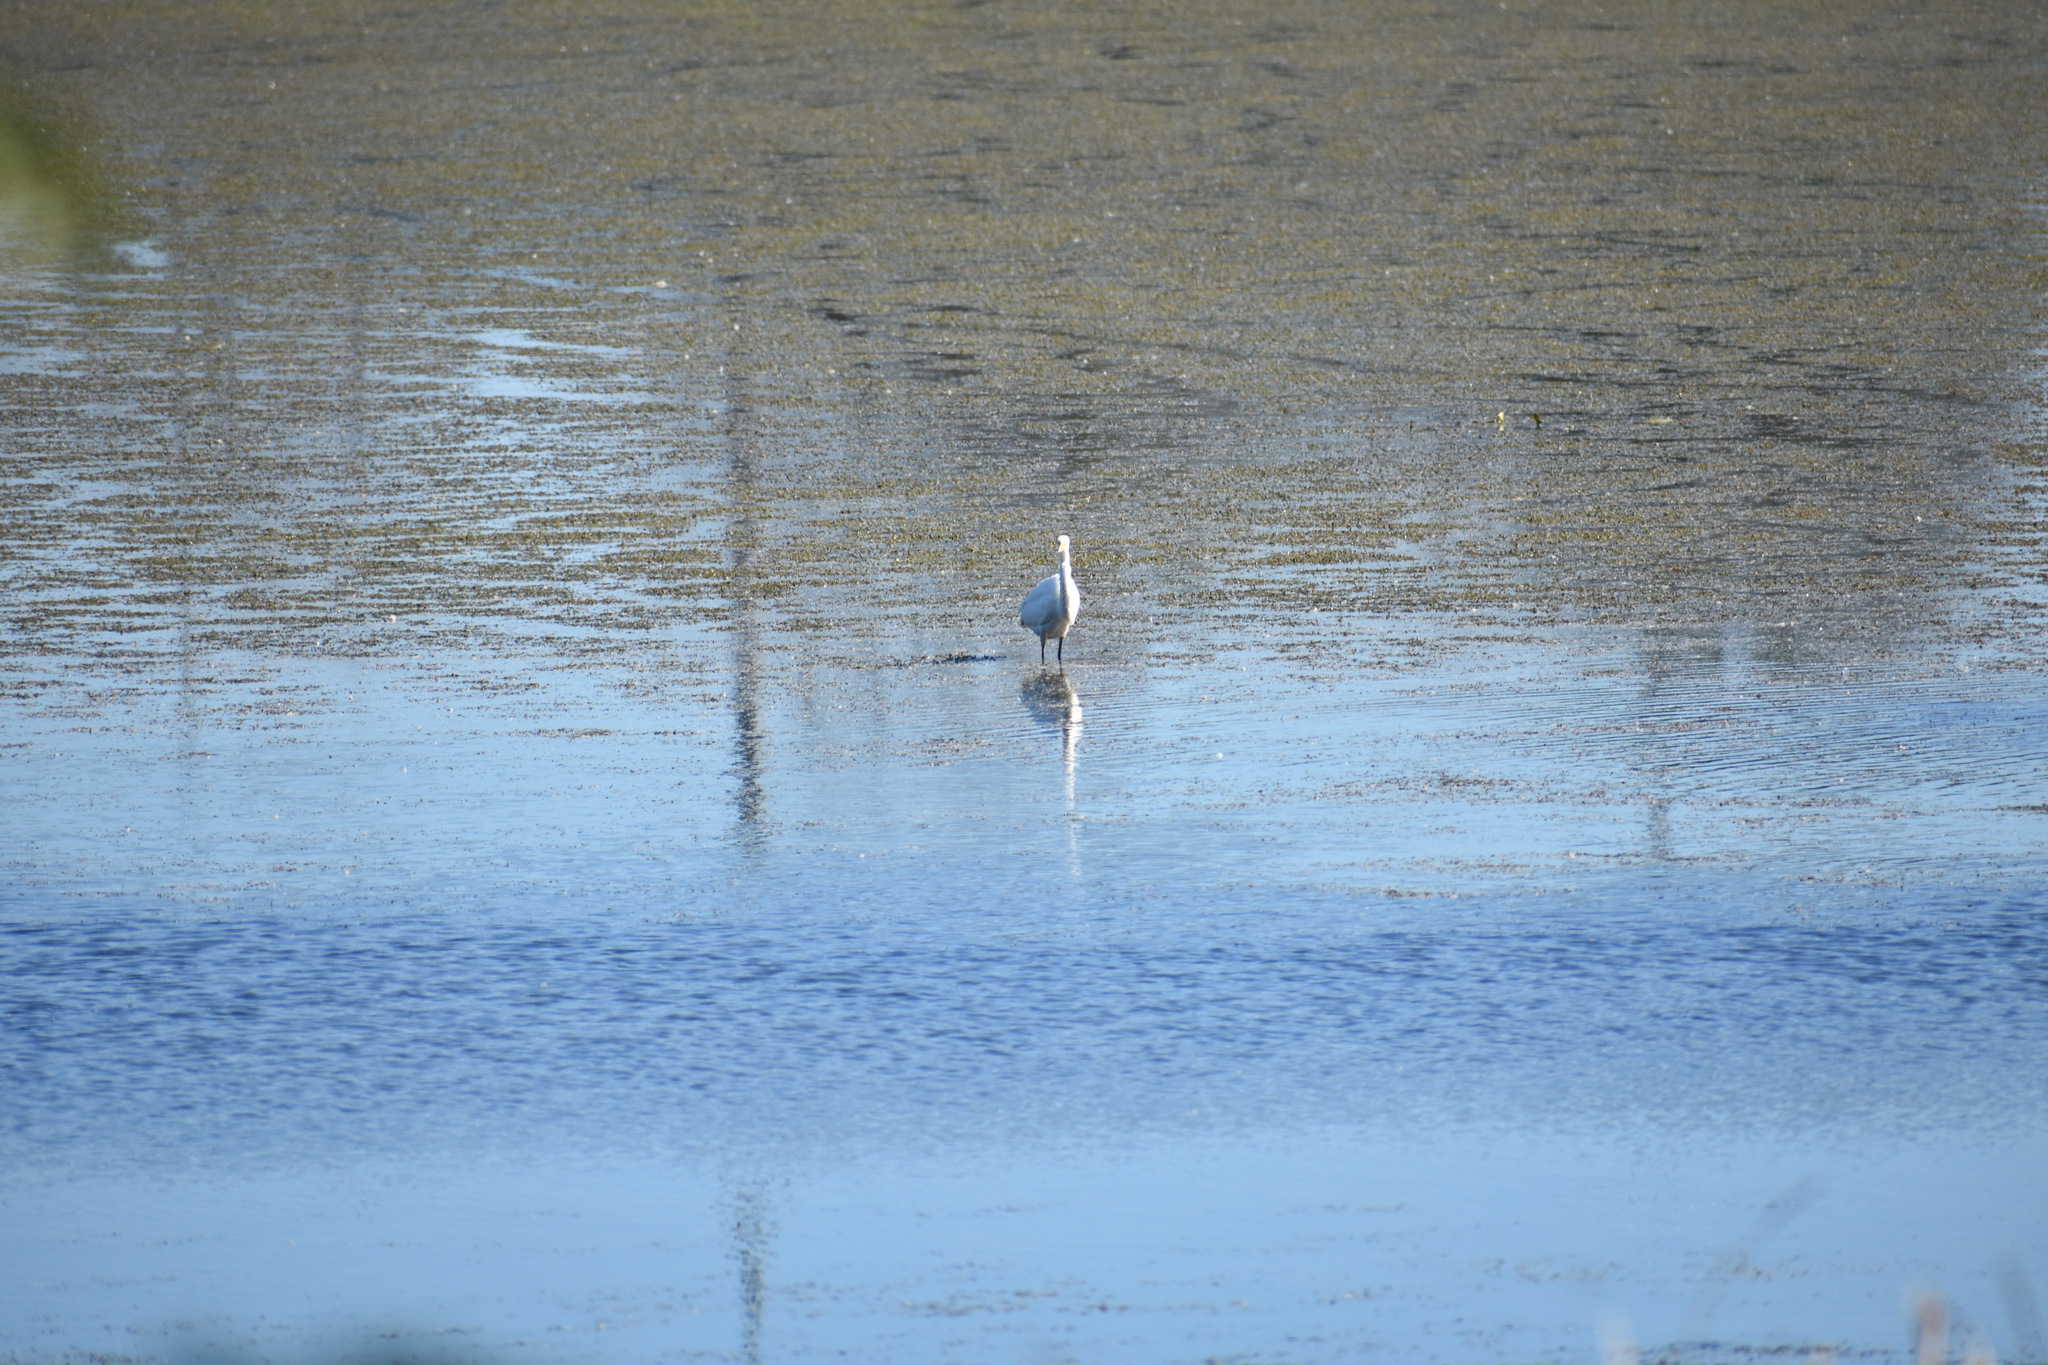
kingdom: Animalia
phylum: Chordata
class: Aves
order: Pelecaniformes
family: Ardeidae
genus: Ardea
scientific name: Ardea alba
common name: Great egret
